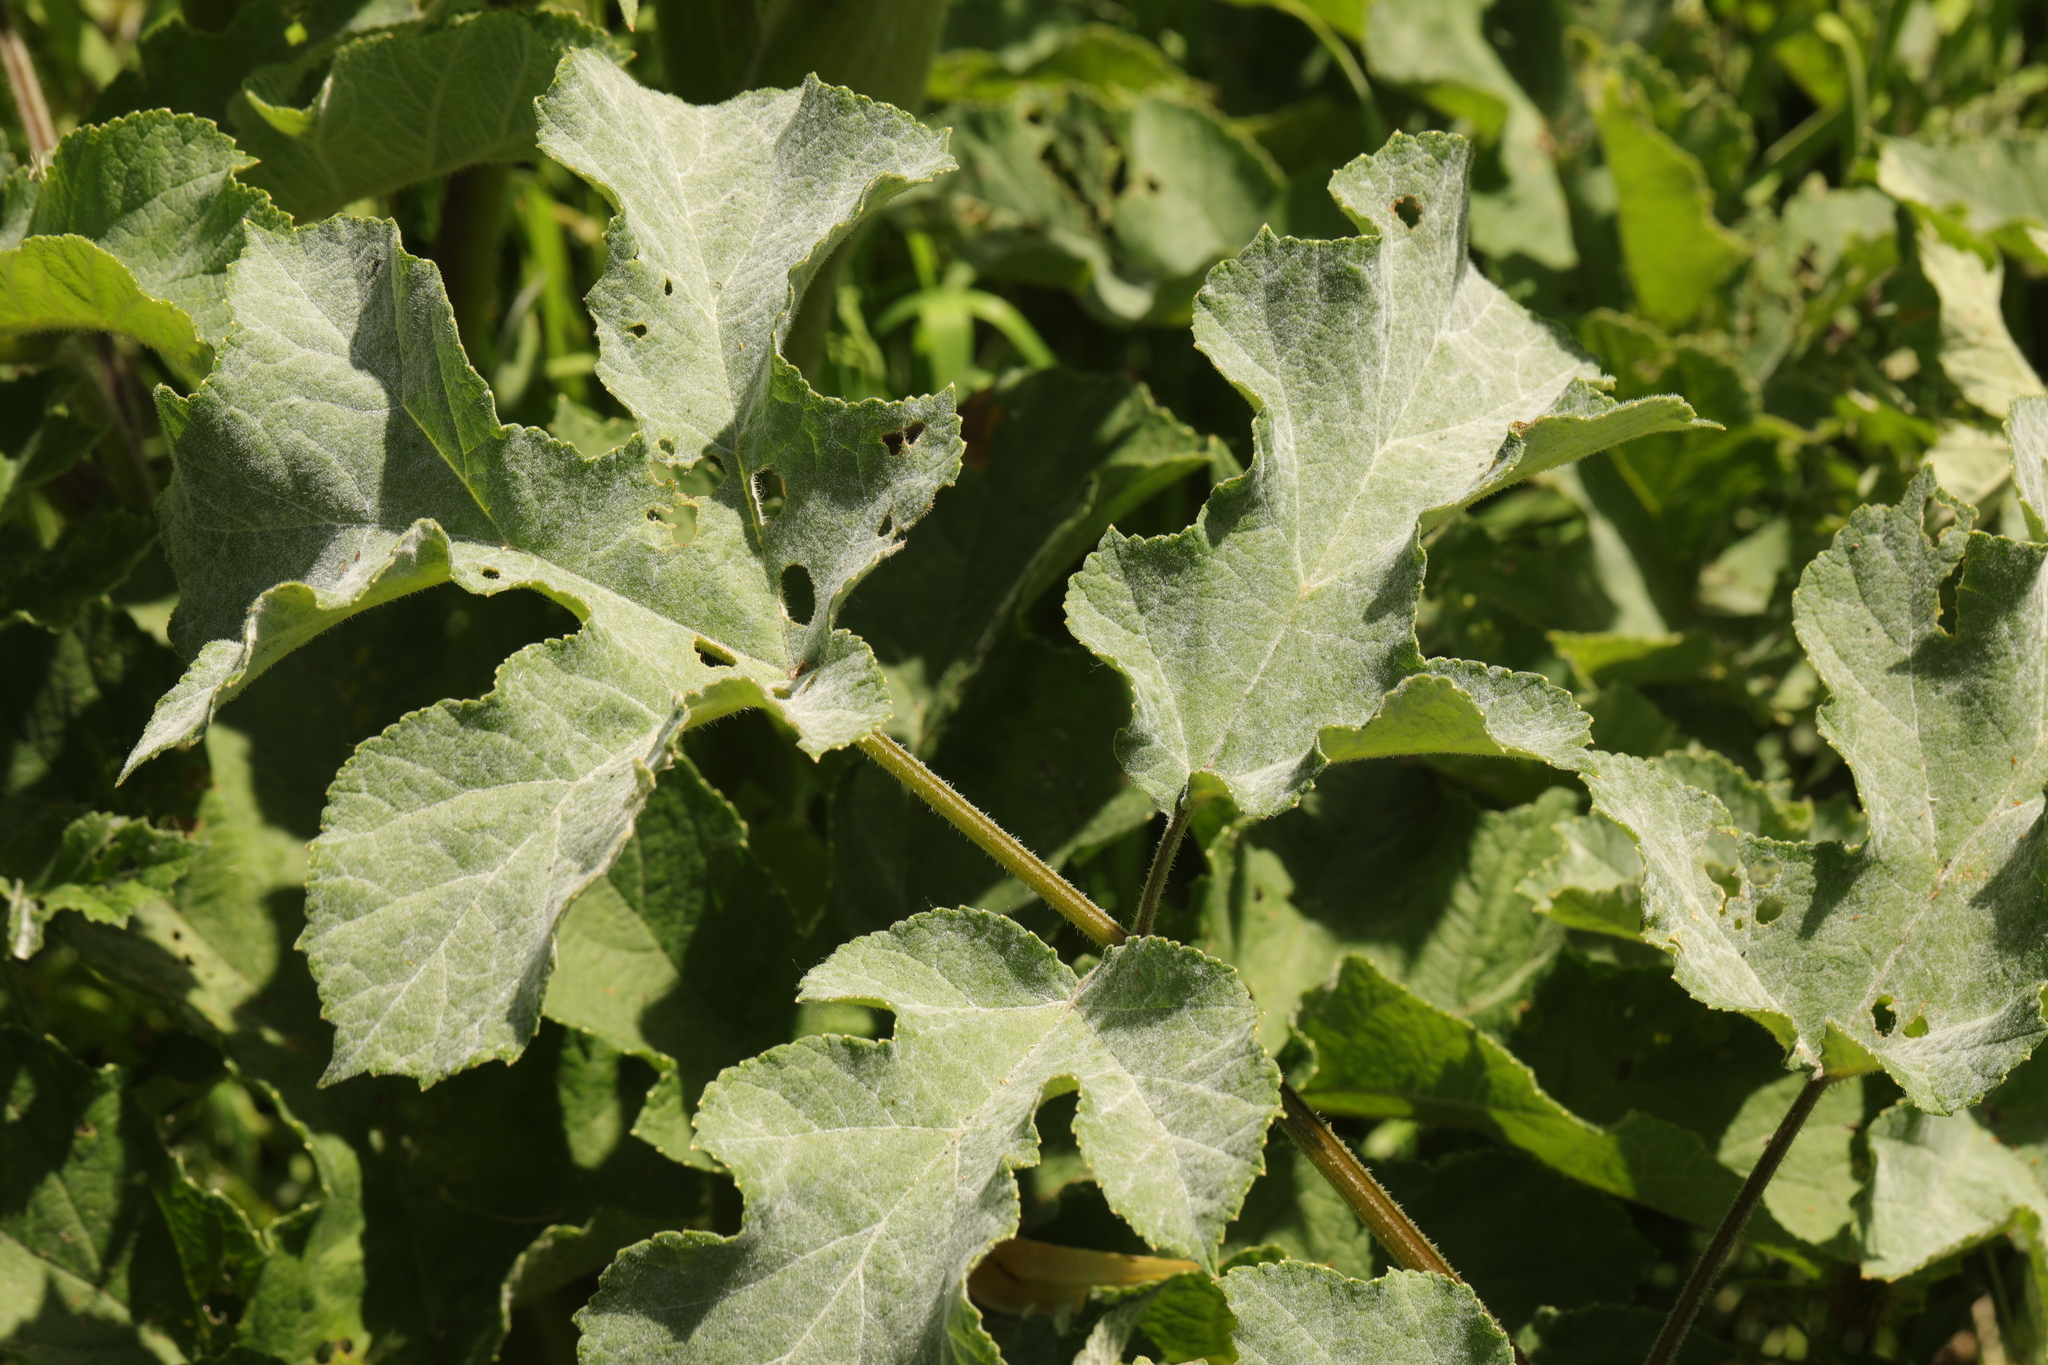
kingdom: Fungi
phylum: Ascomycota
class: Leotiomycetes
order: Helotiales
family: Erysiphaceae
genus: Erysiphe
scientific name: Erysiphe heraclei
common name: Umbellifer mildew
